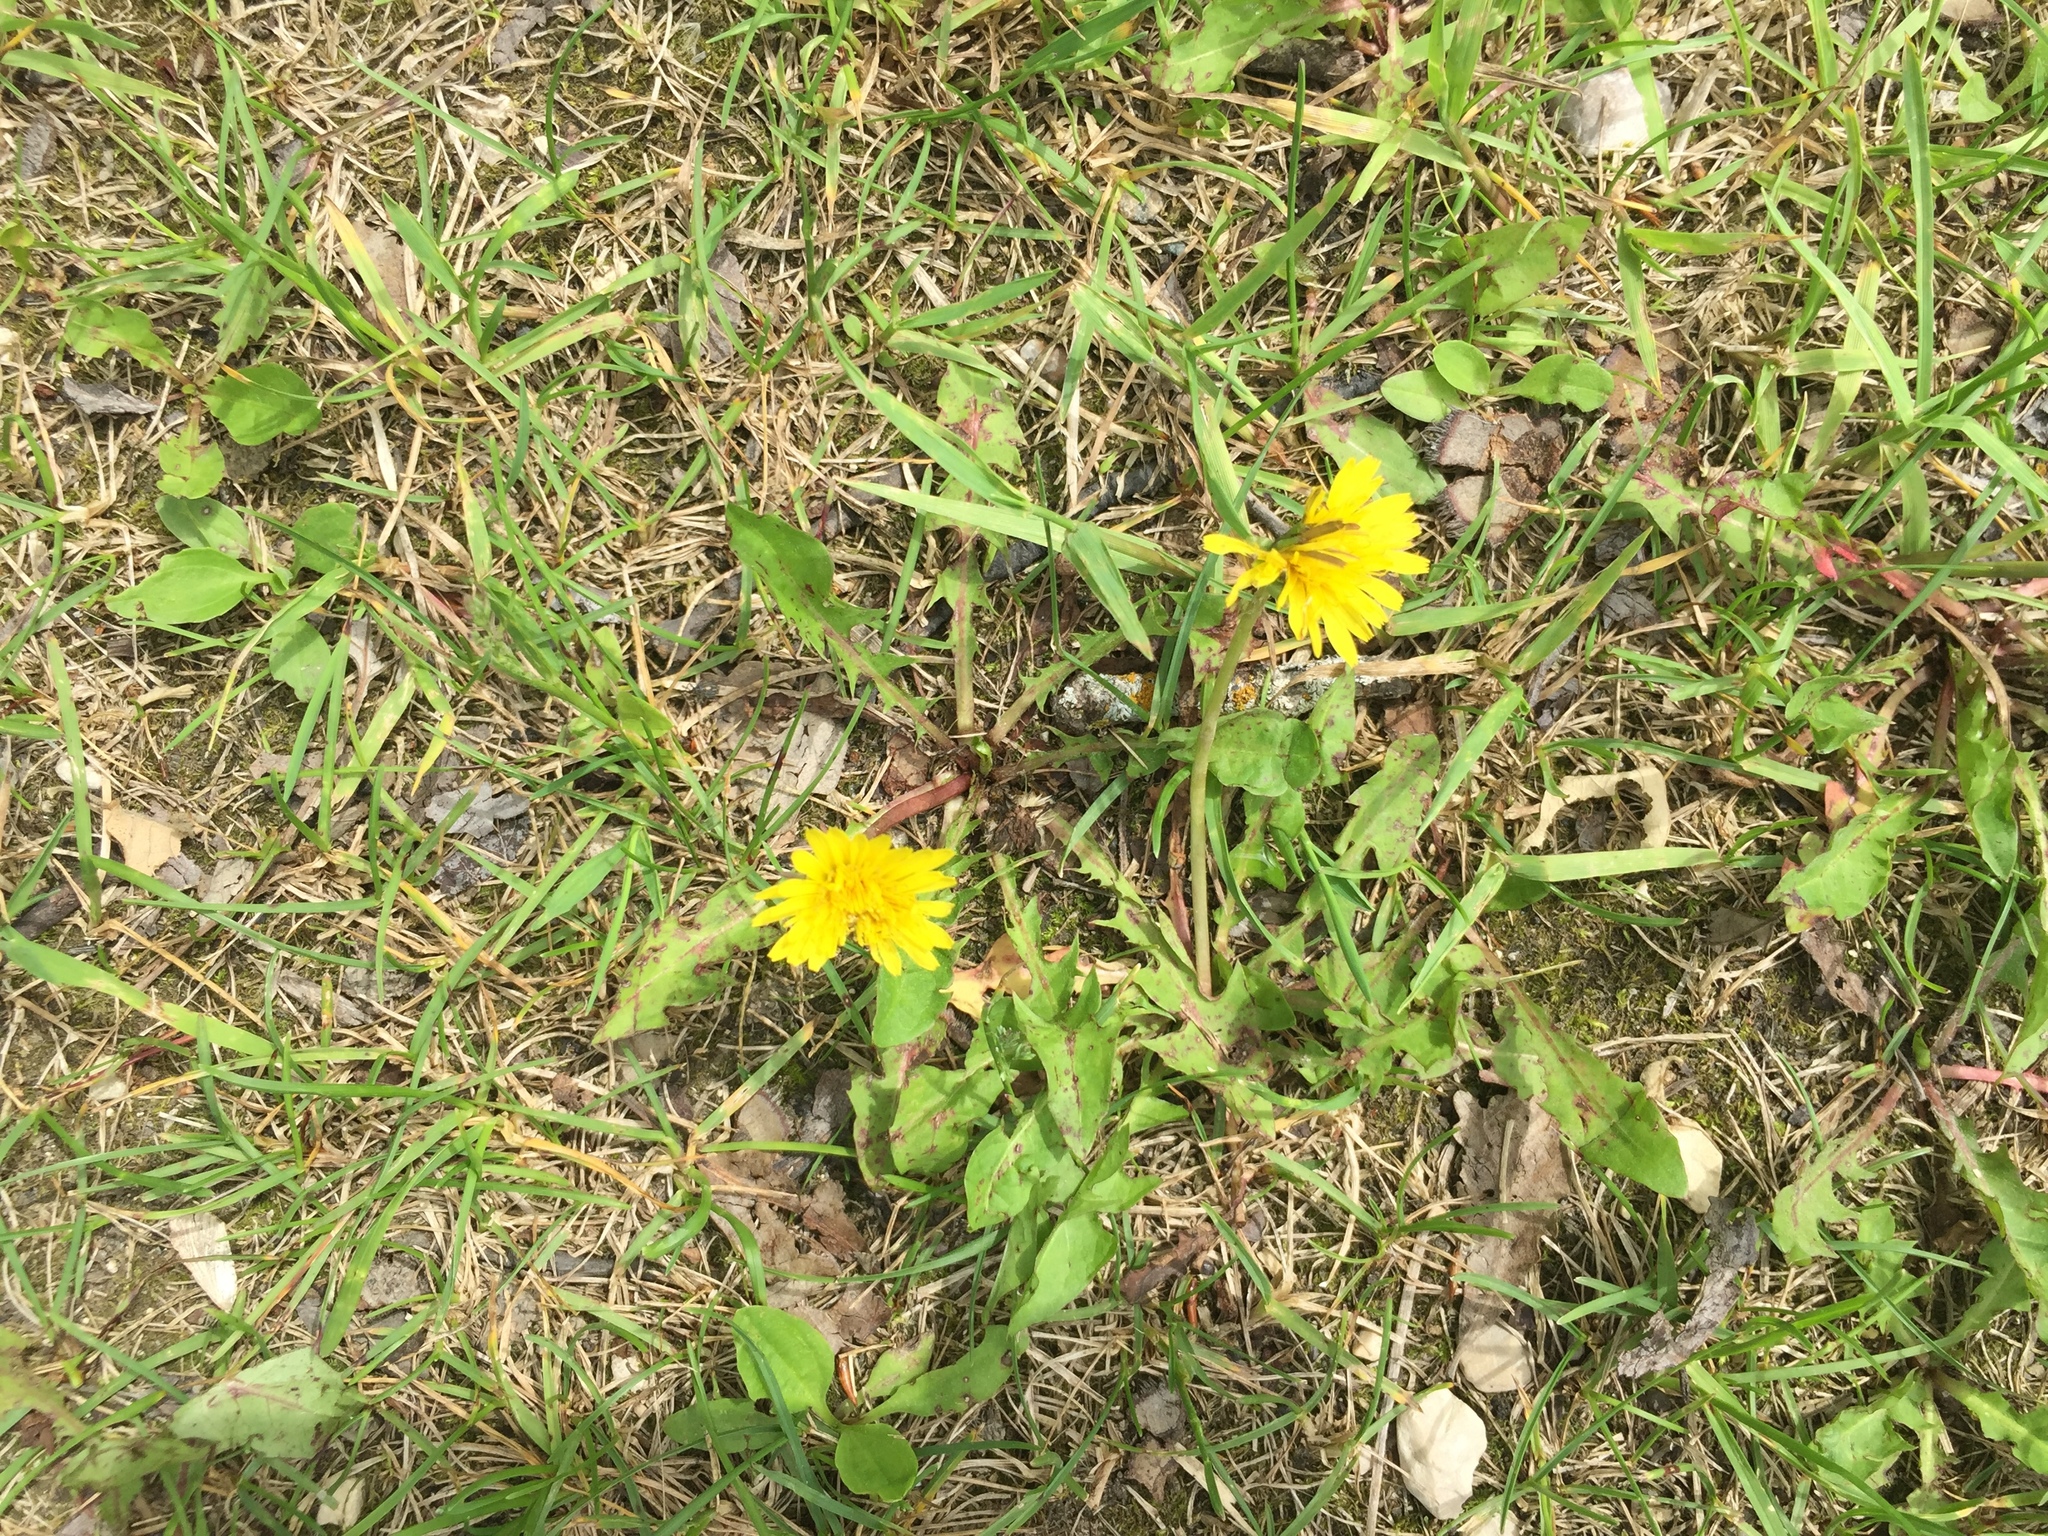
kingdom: Plantae
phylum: Tracheophyta
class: Magnoliopsida
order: Asterales
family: Asteraceae
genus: Taraxacum
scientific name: Taraxacum officinale
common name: Common dandelion
